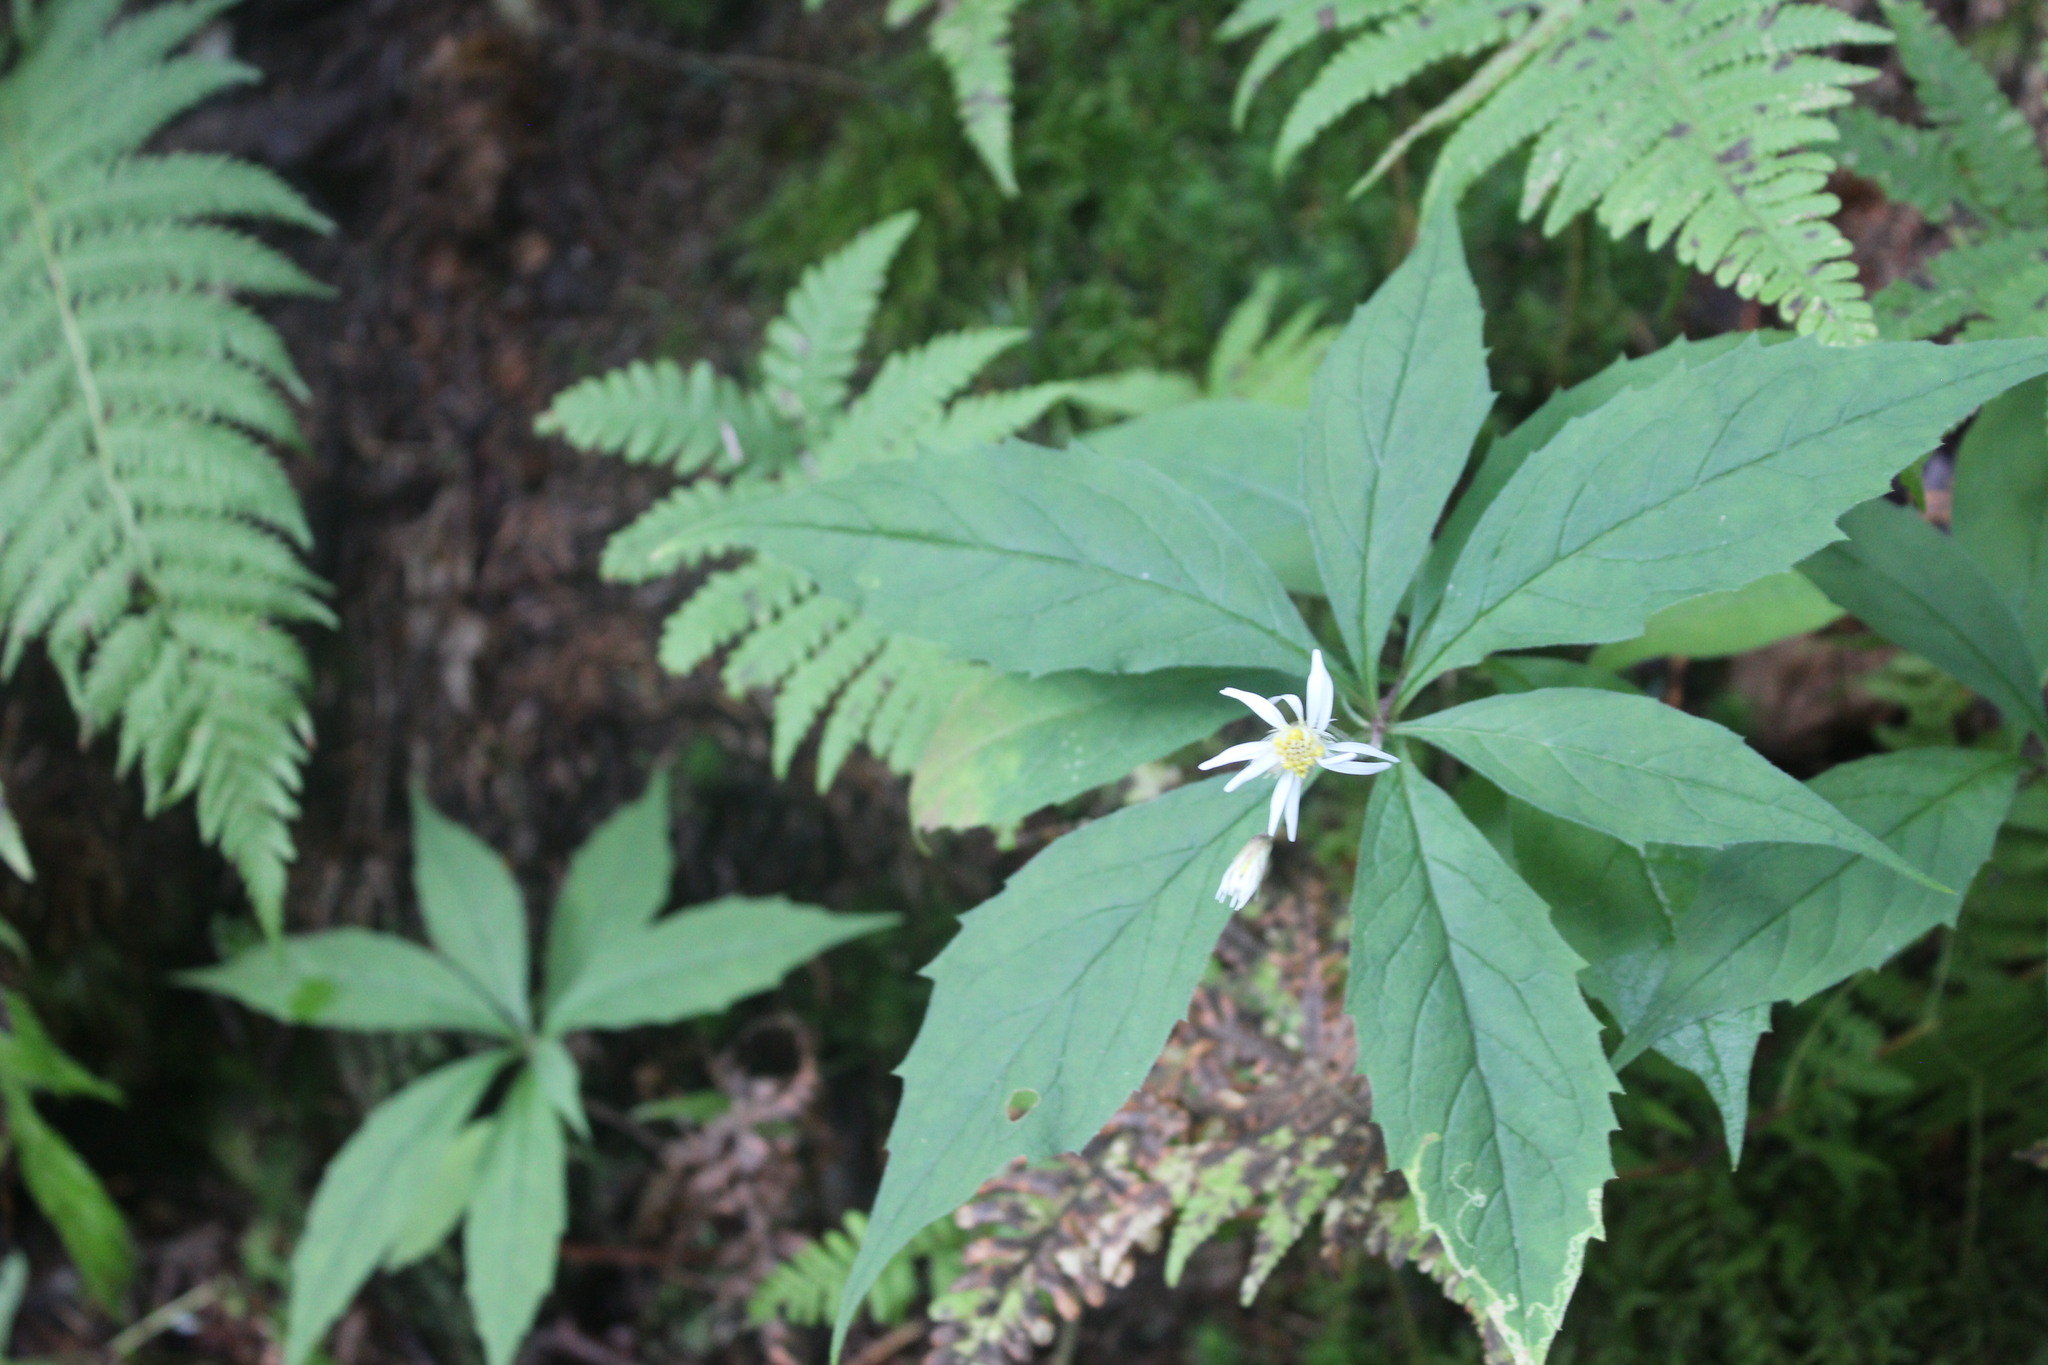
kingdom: Plantae
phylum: Tracheophyta
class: Magnoliopsida
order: Asterales
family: Asteraceae
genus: Oclemena
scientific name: Oclemena acuminata
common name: Mountain aster
